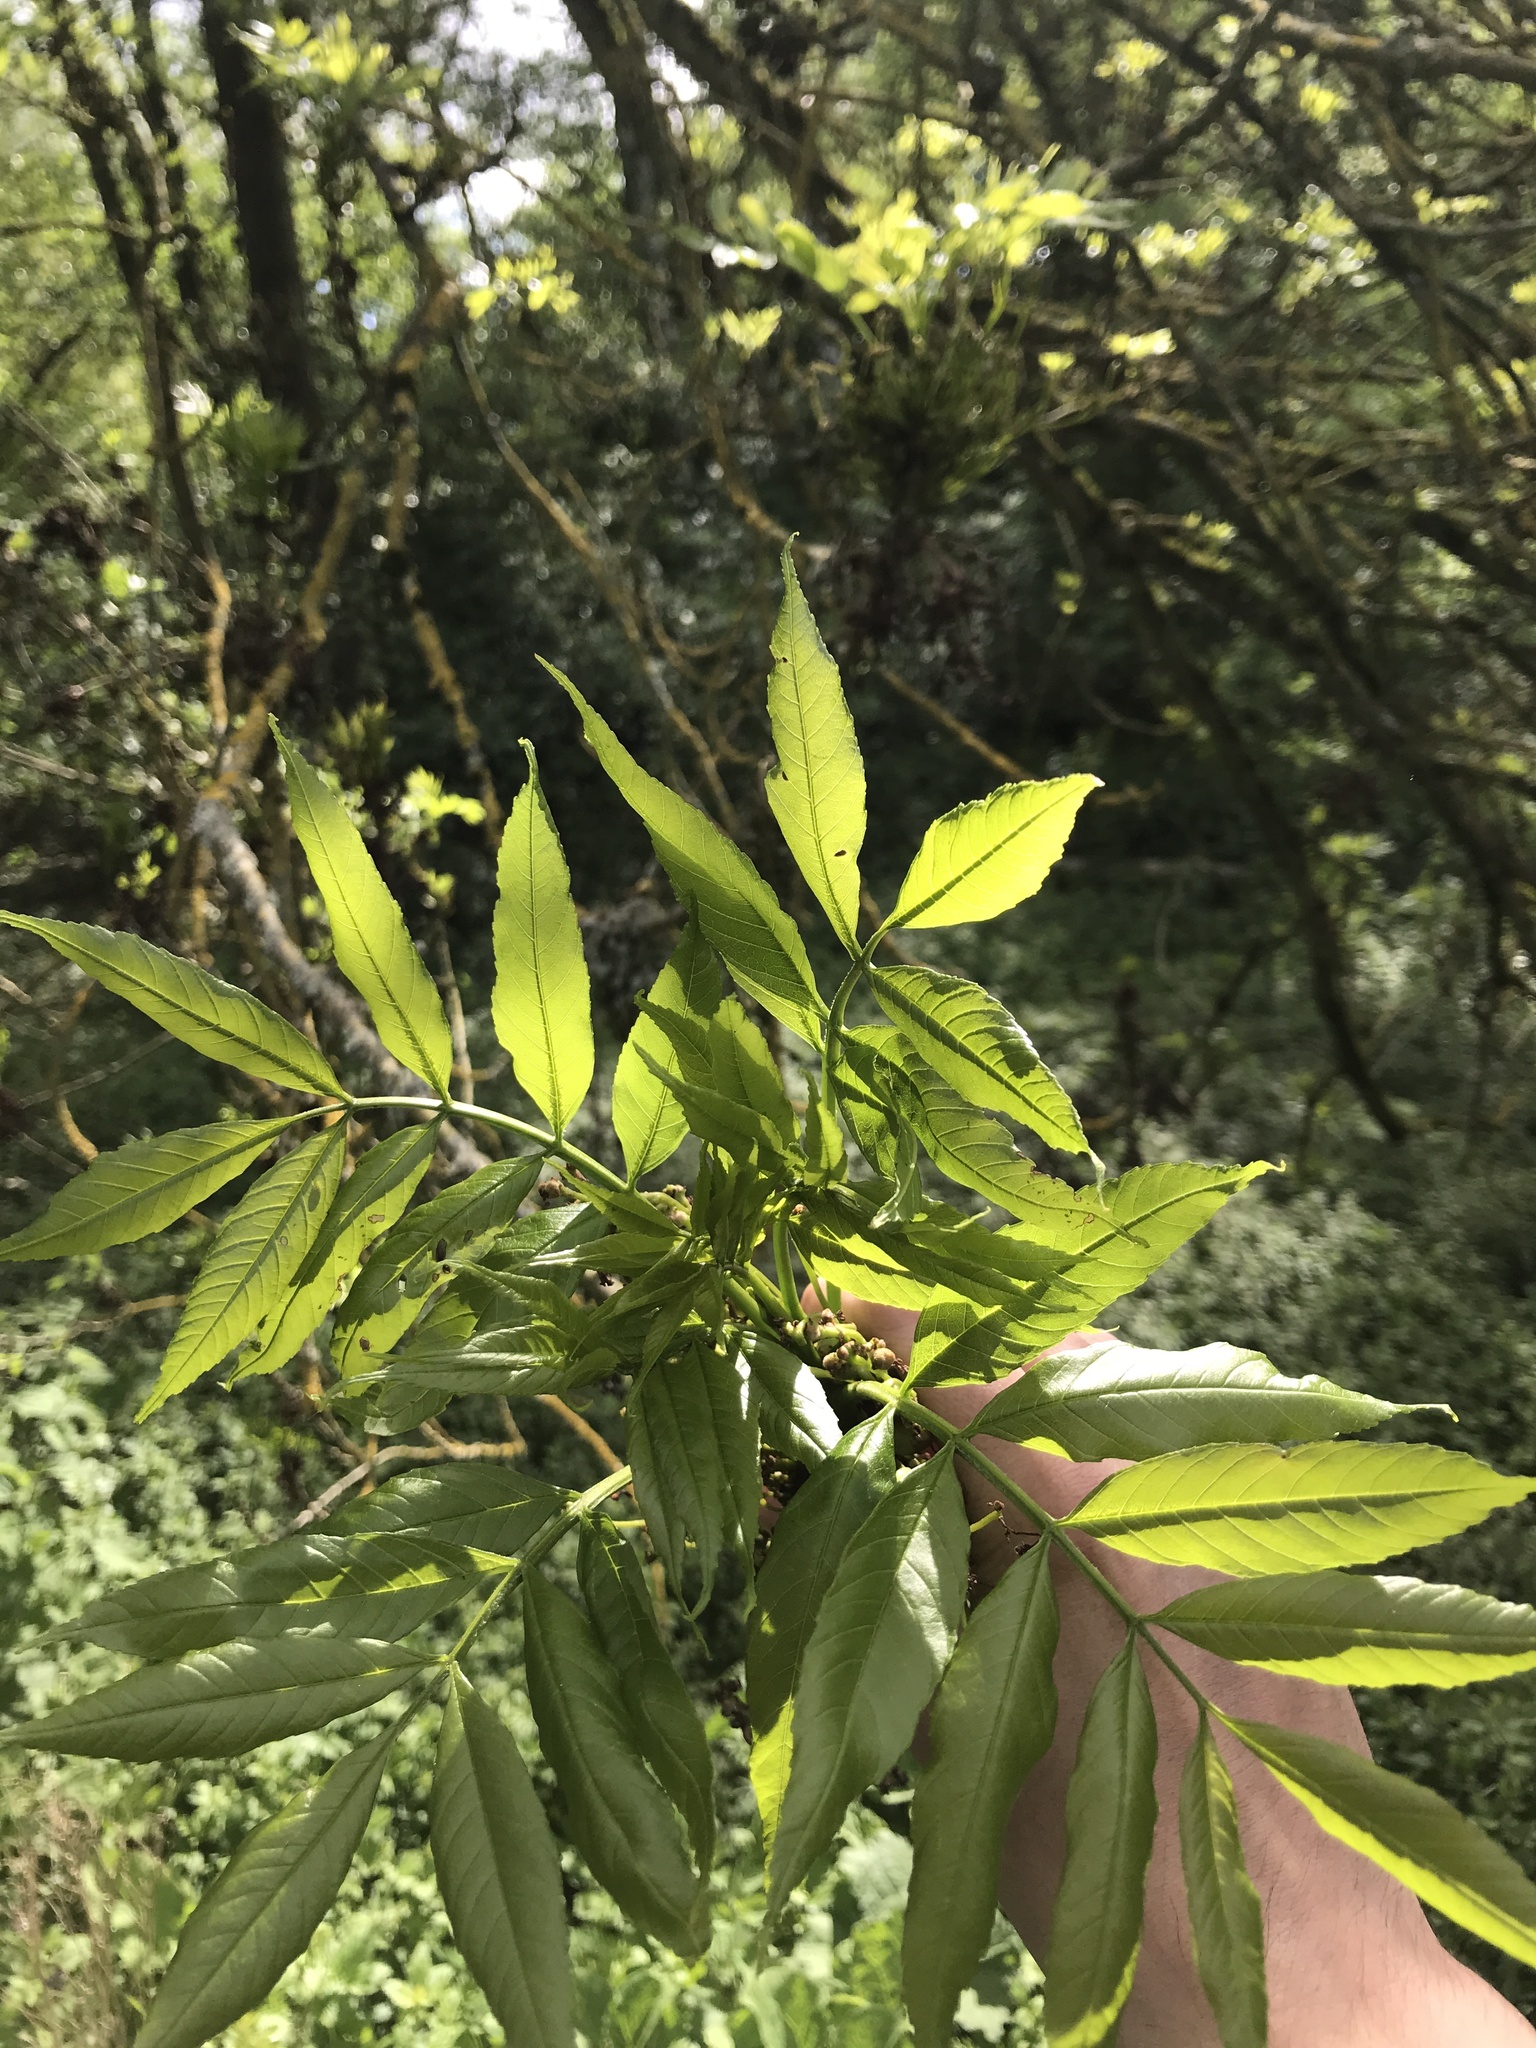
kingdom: Plantae
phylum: Tracheophyta
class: Magnoliopsida
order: Lamiales
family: Oleaceae
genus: Fraxinus
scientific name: Fraxinus excelsior
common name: European ash
